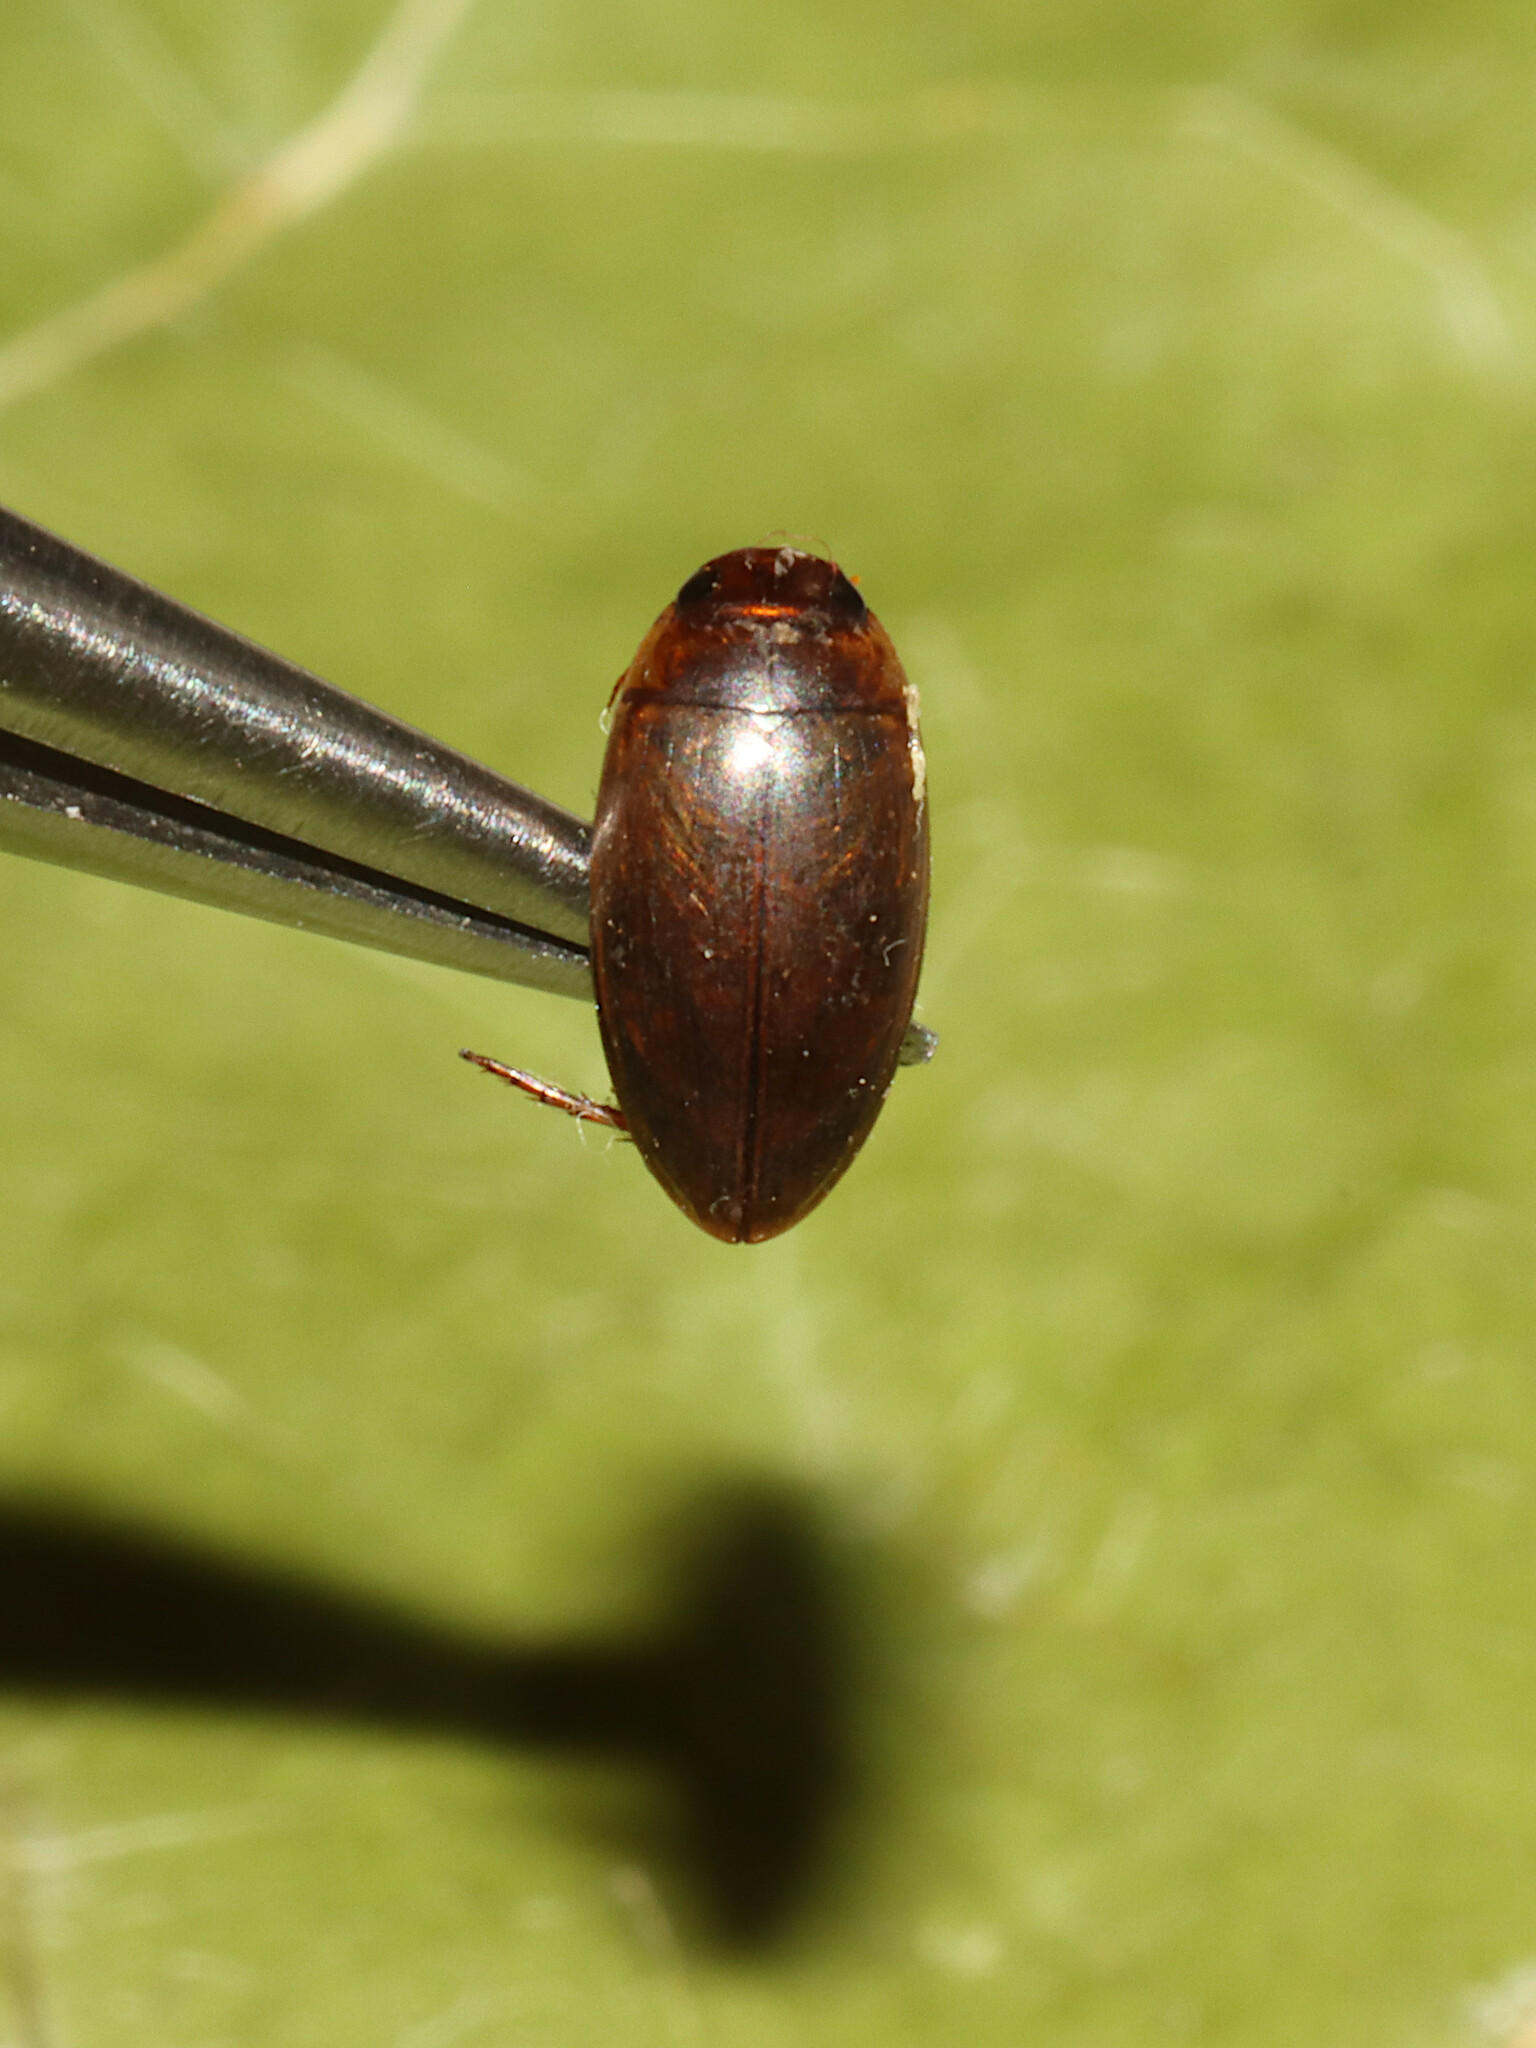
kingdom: Animalia
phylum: Arthropoda
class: Insecta
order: Coleoptera
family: Dytiscidae
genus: Copelatus
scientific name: Copelatus chevrolati
